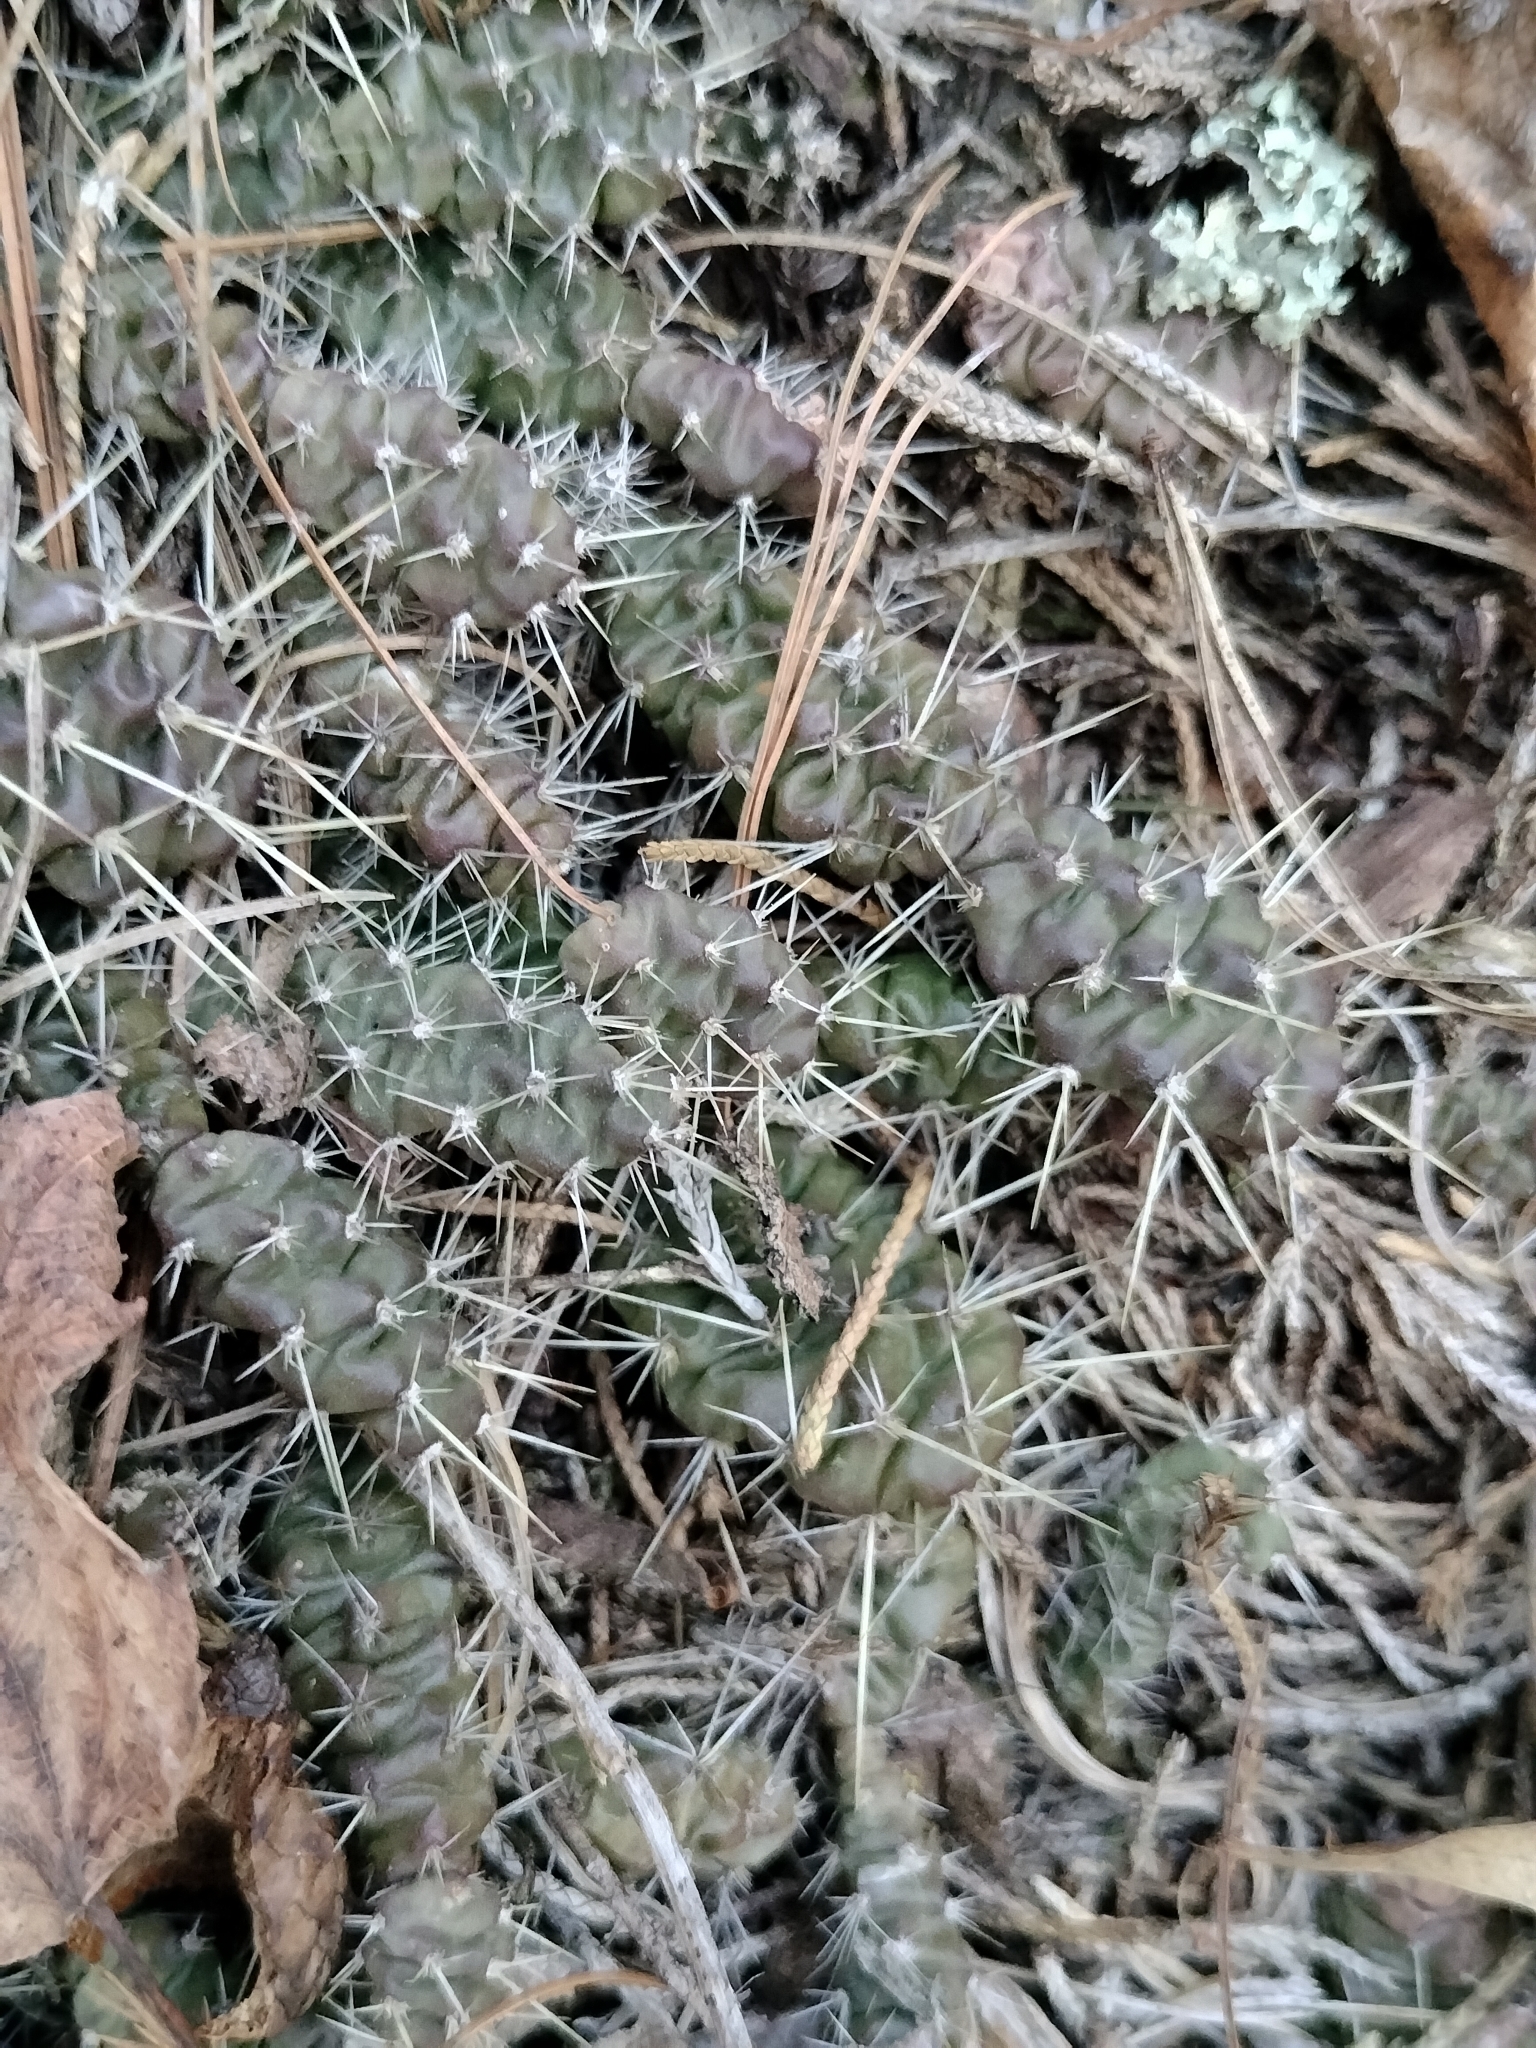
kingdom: Plantae
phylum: Tracheophyta
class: Magnoliopsida
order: Caryophyllales
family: Cactaceae
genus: Opuntia
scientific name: Opuntia fragilis
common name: Brittle cactus
